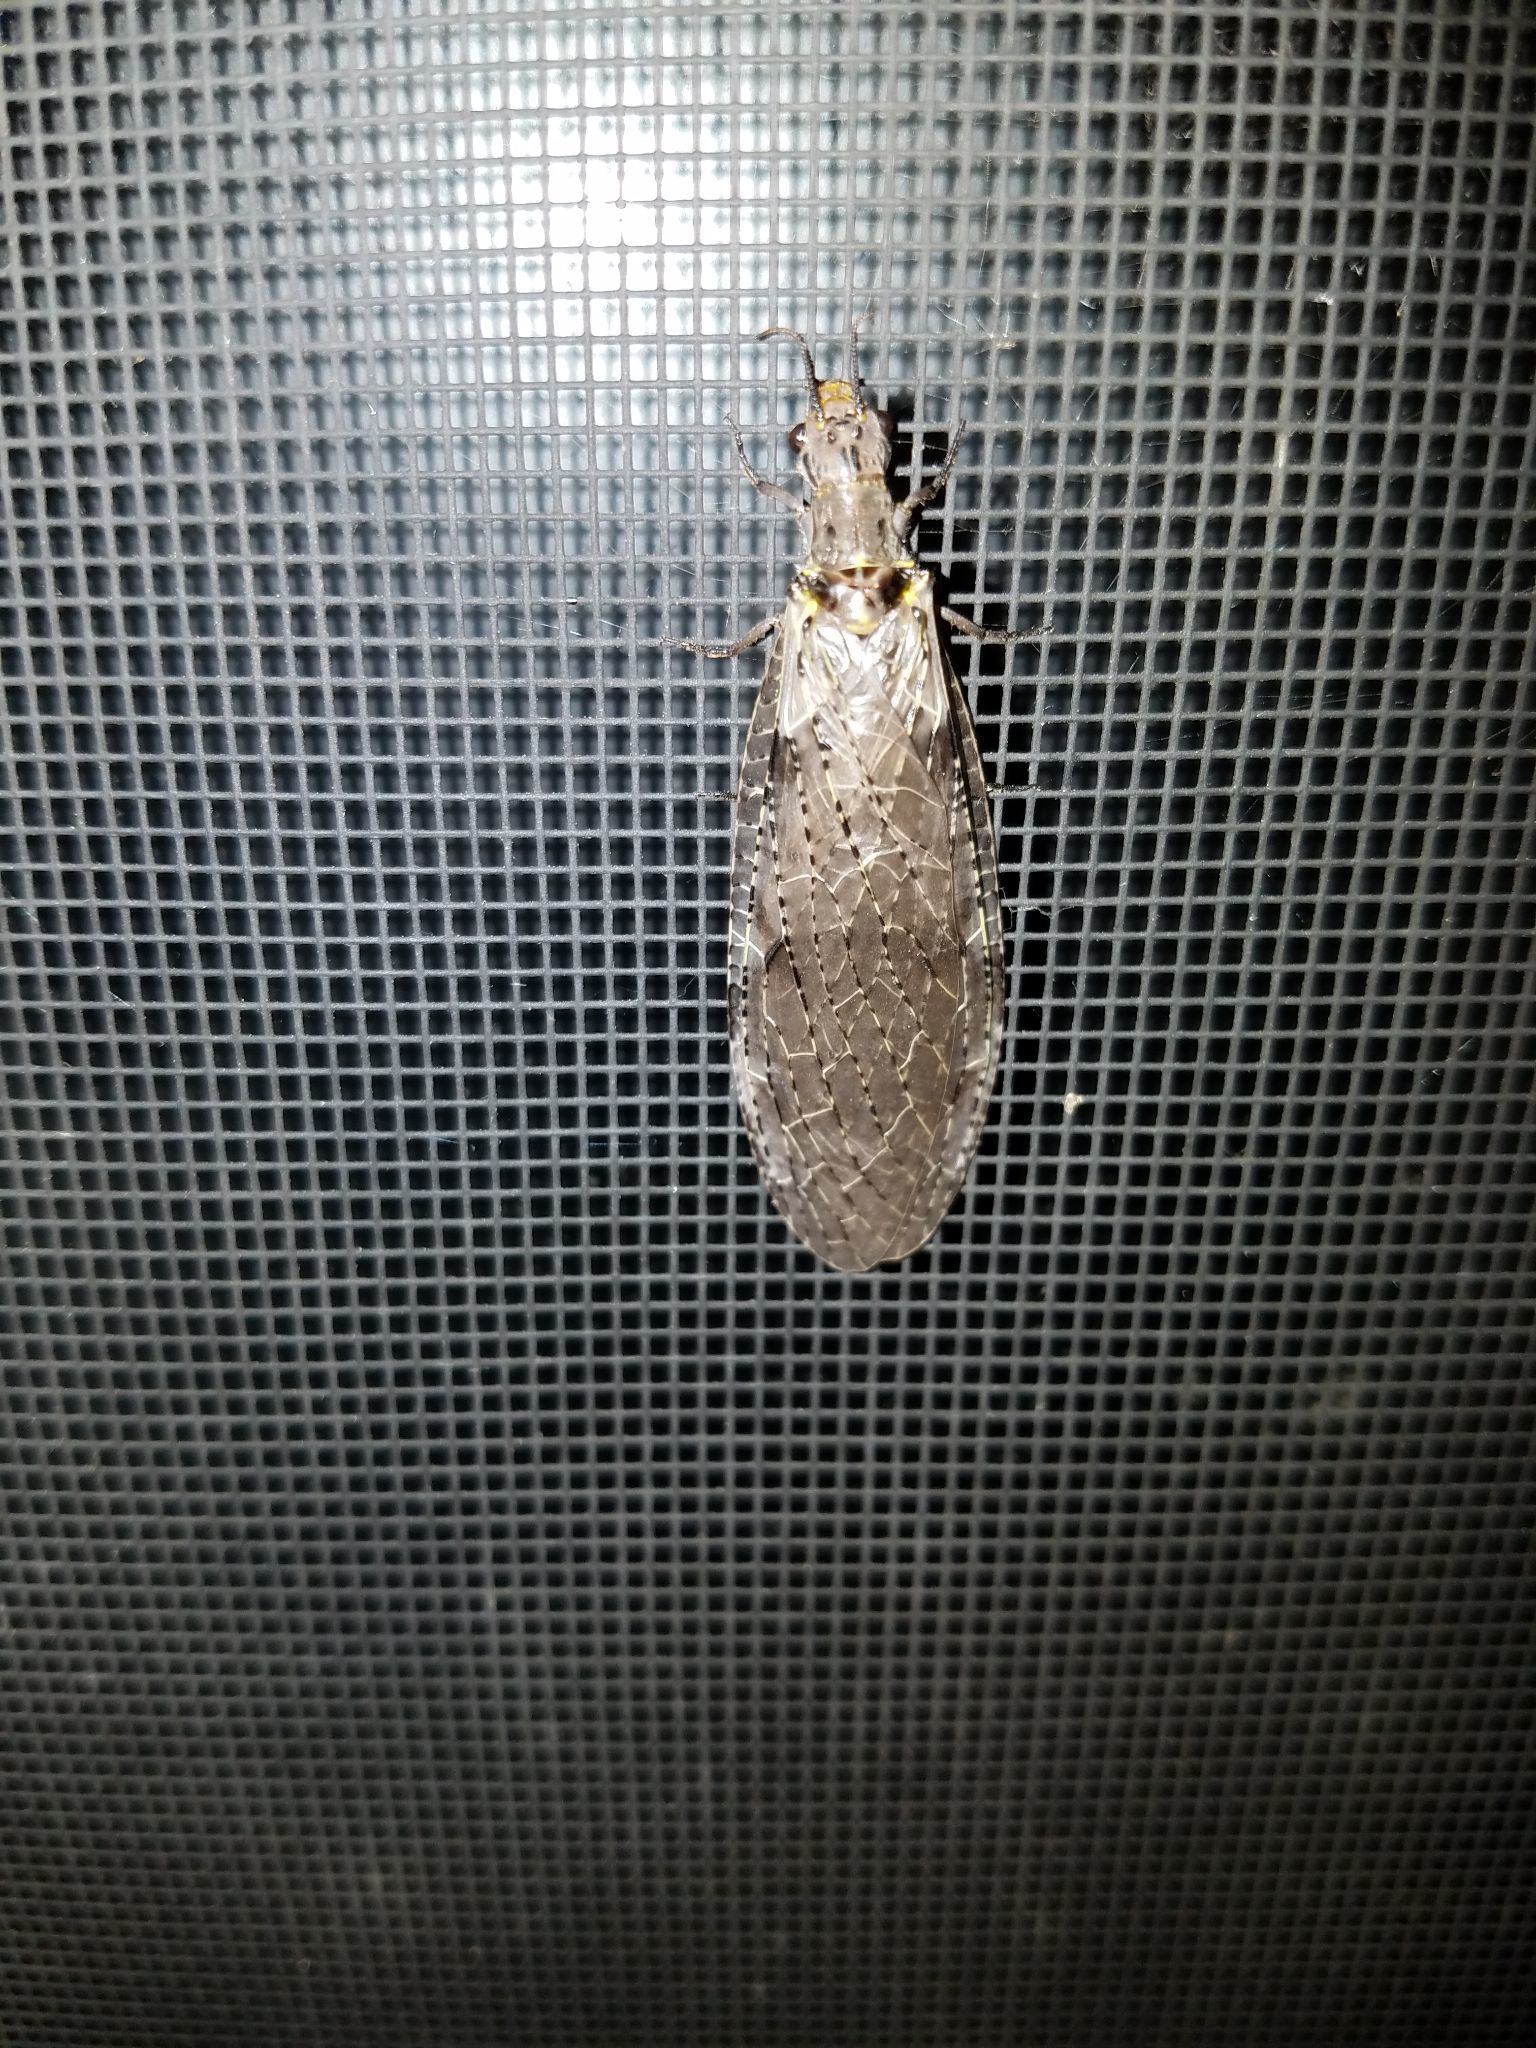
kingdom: Animalia
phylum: Arthropoda
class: Insecta
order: Megaloptera
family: Corydalidae
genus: Chauliodes
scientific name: Chauliodes rastricornis
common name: Spring fishfly
